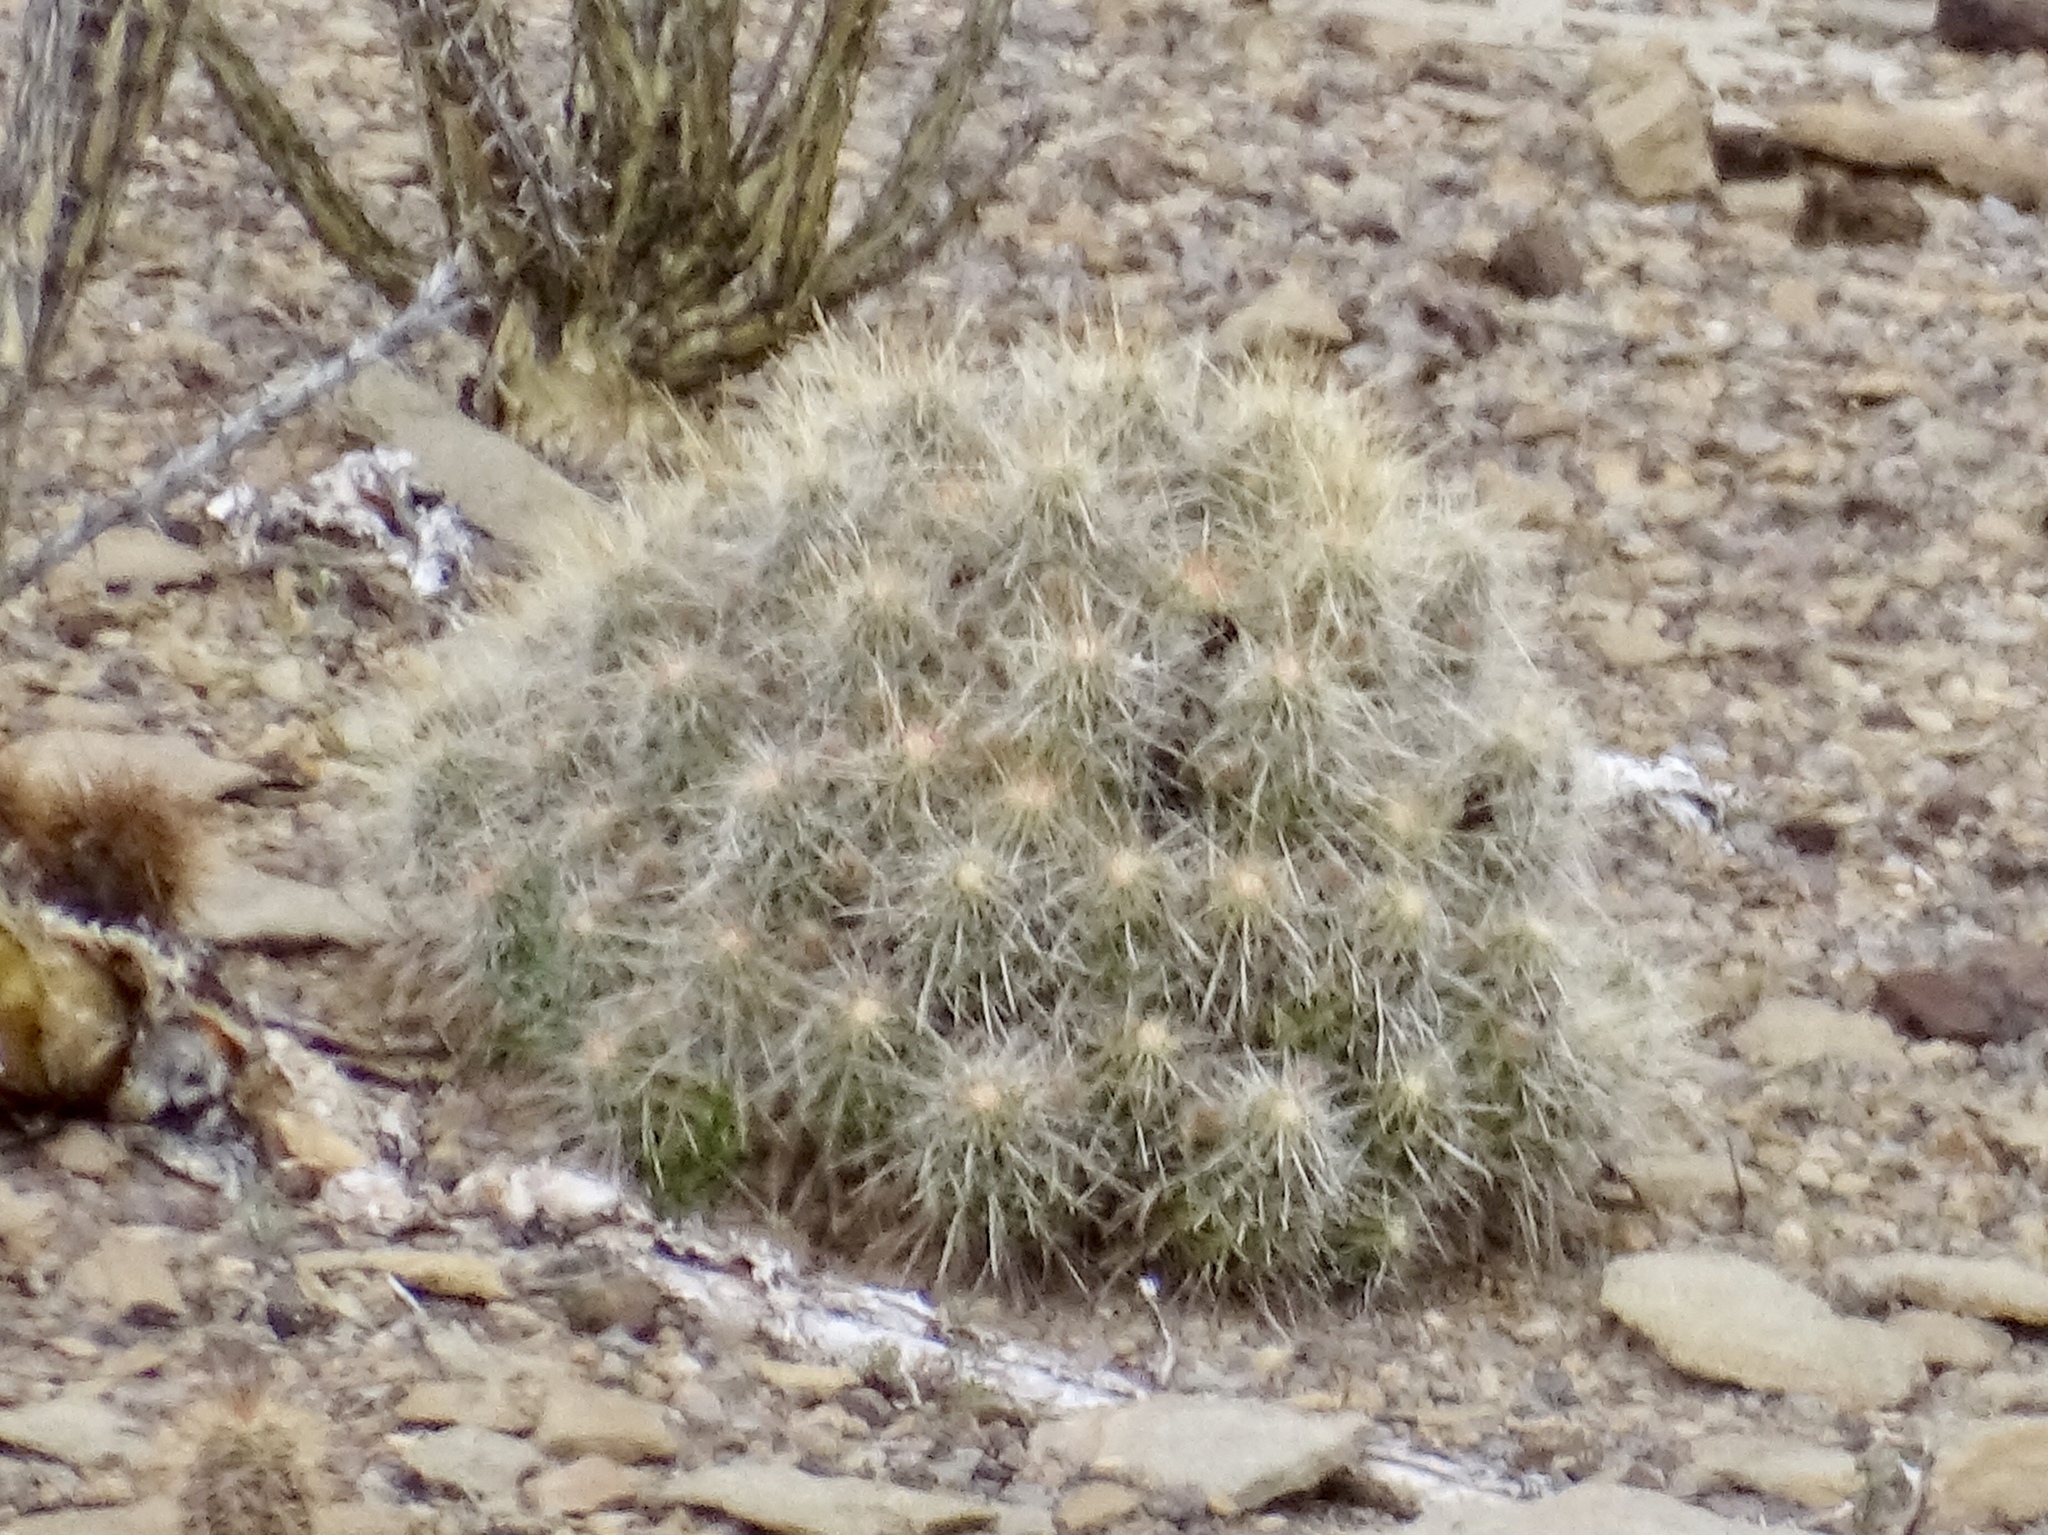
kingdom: Plantae
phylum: Tracheophyta
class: Magnoliopsida
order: Caryophyllales
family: Cactaceae
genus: Echinocereus
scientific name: Echinocereus stramineus
